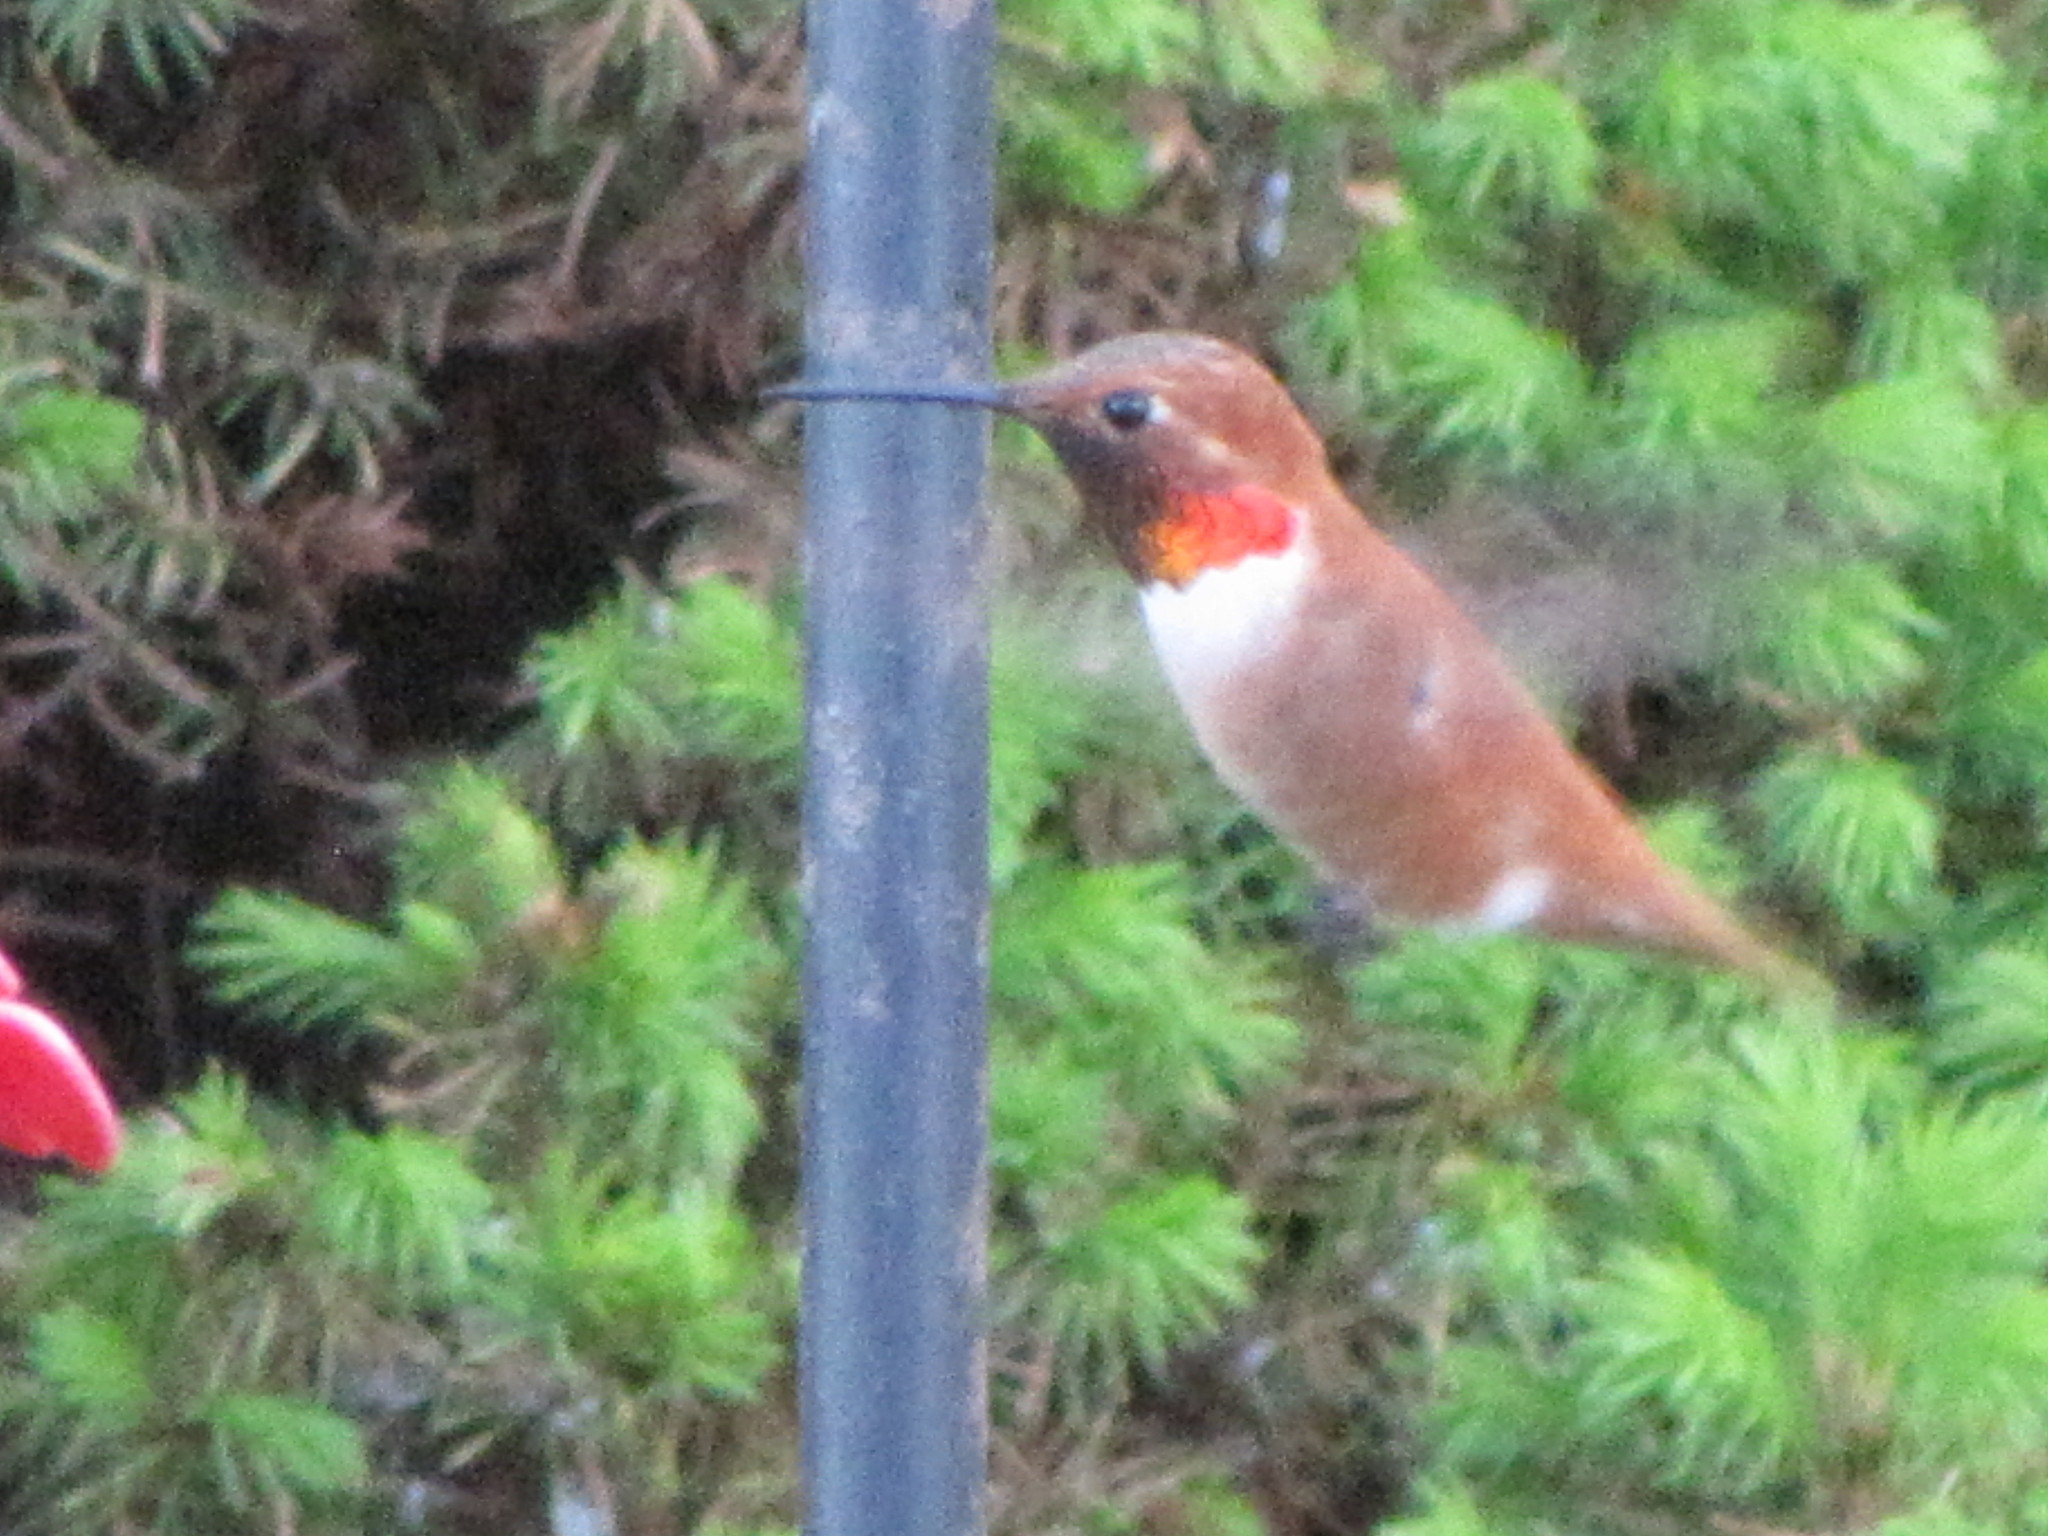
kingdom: Animalia
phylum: Chordata
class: Aves
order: Apodiformes
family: Trochilidae
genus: Selasphorus
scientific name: Selasphorus rufus
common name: Rufous hummingbird
